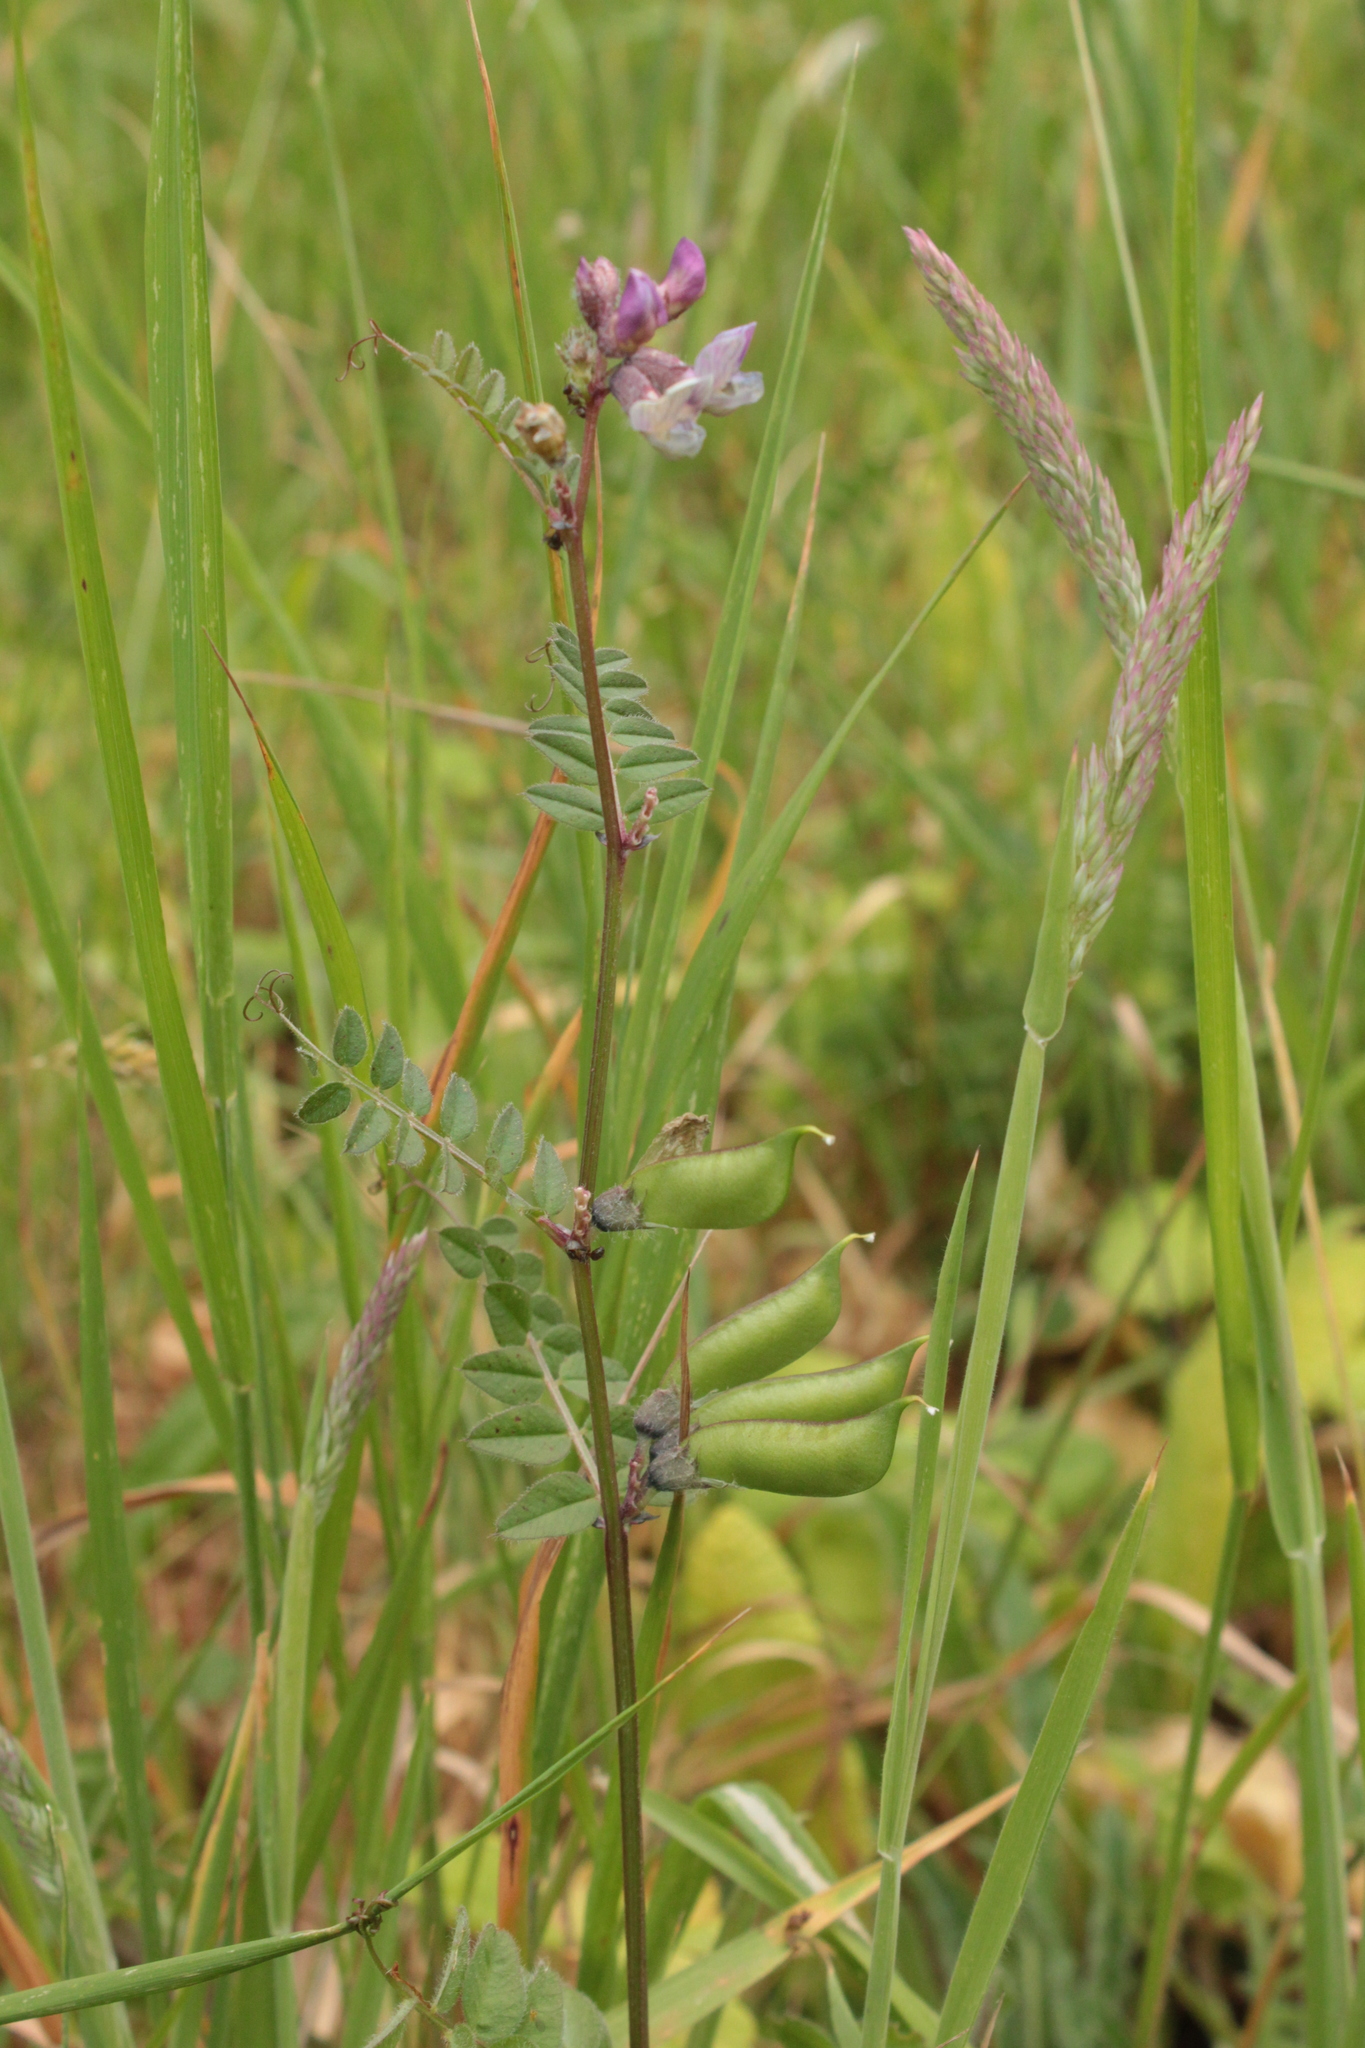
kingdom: Plantae
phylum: Tracheophyta
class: Magnoliopsida
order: Fabales
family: Fabaceae
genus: Vicia
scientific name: Vicia sepium
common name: Bush vetch
